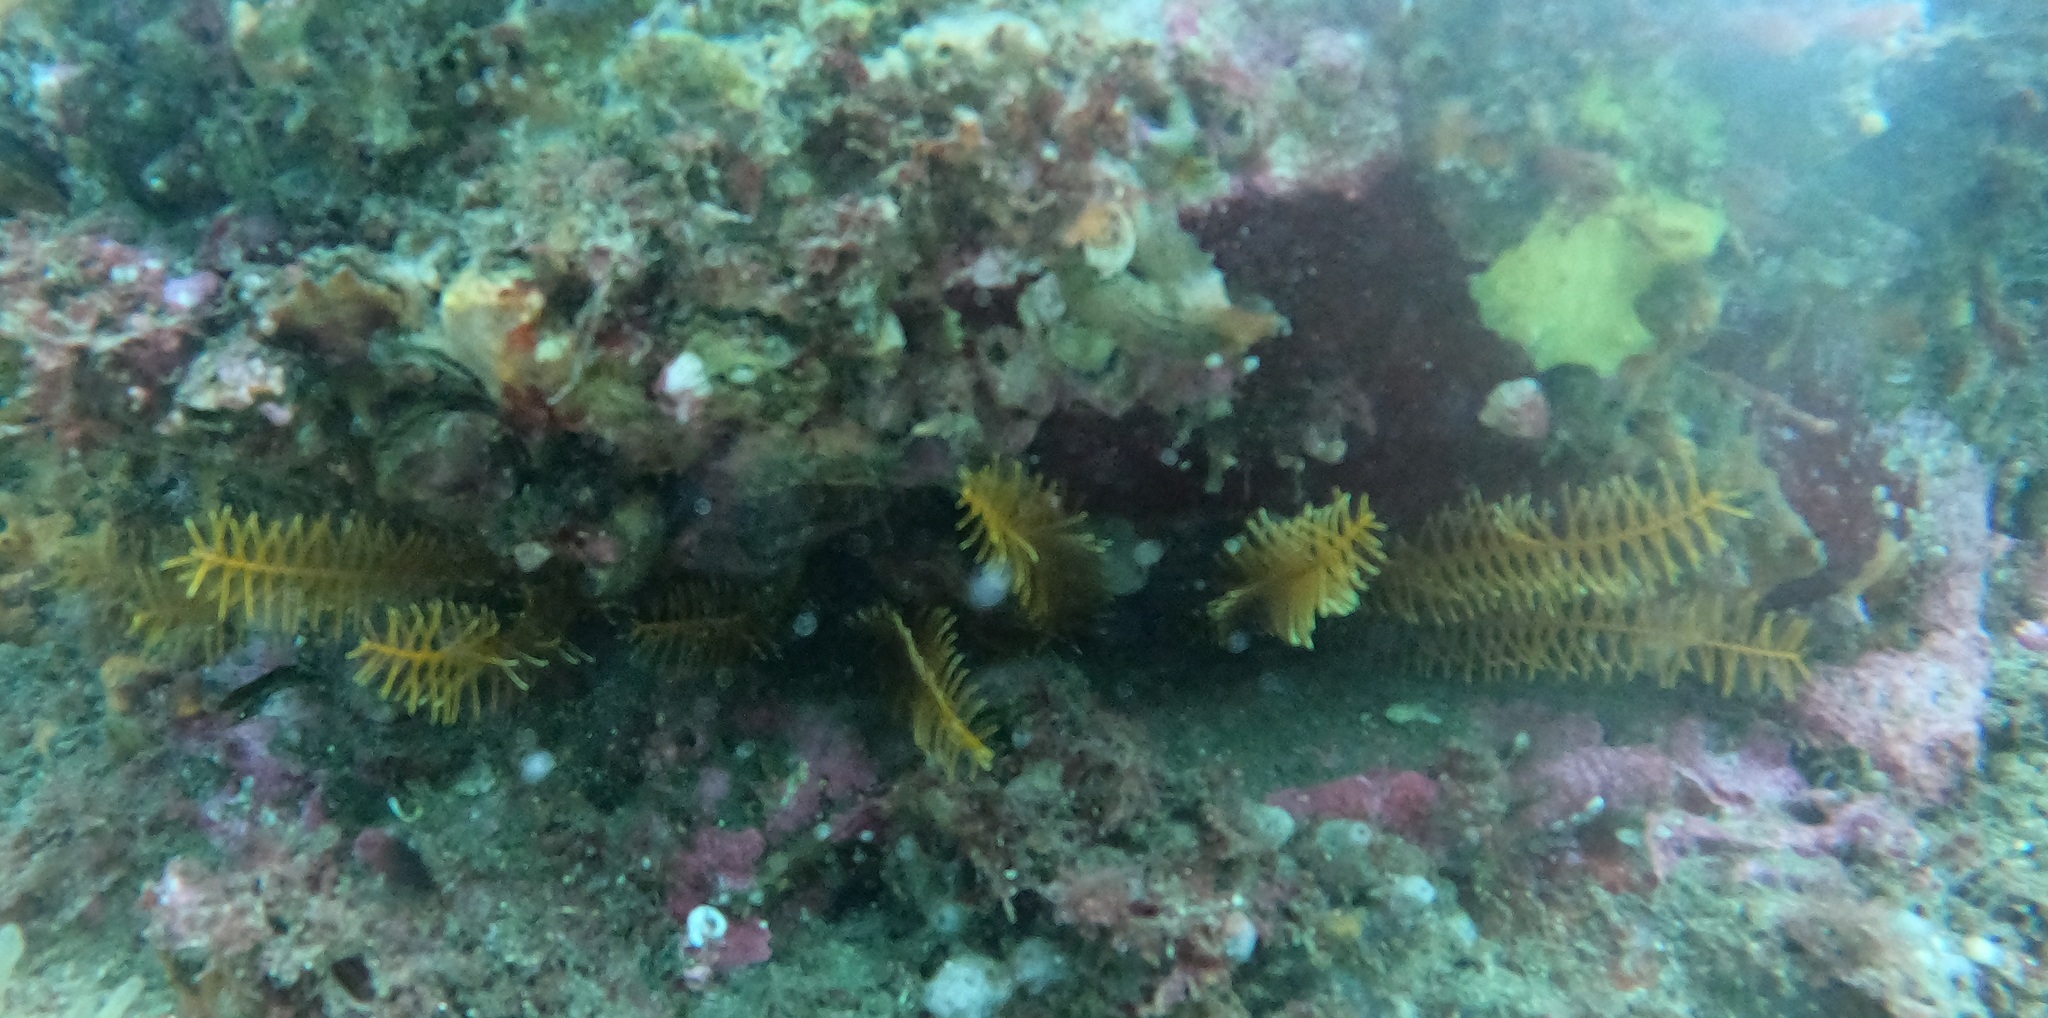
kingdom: Animalia
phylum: Echinodermata
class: Crinoidea
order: Comatulida
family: Comatulidae
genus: Cenolia
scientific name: Cenolia trichoptera
